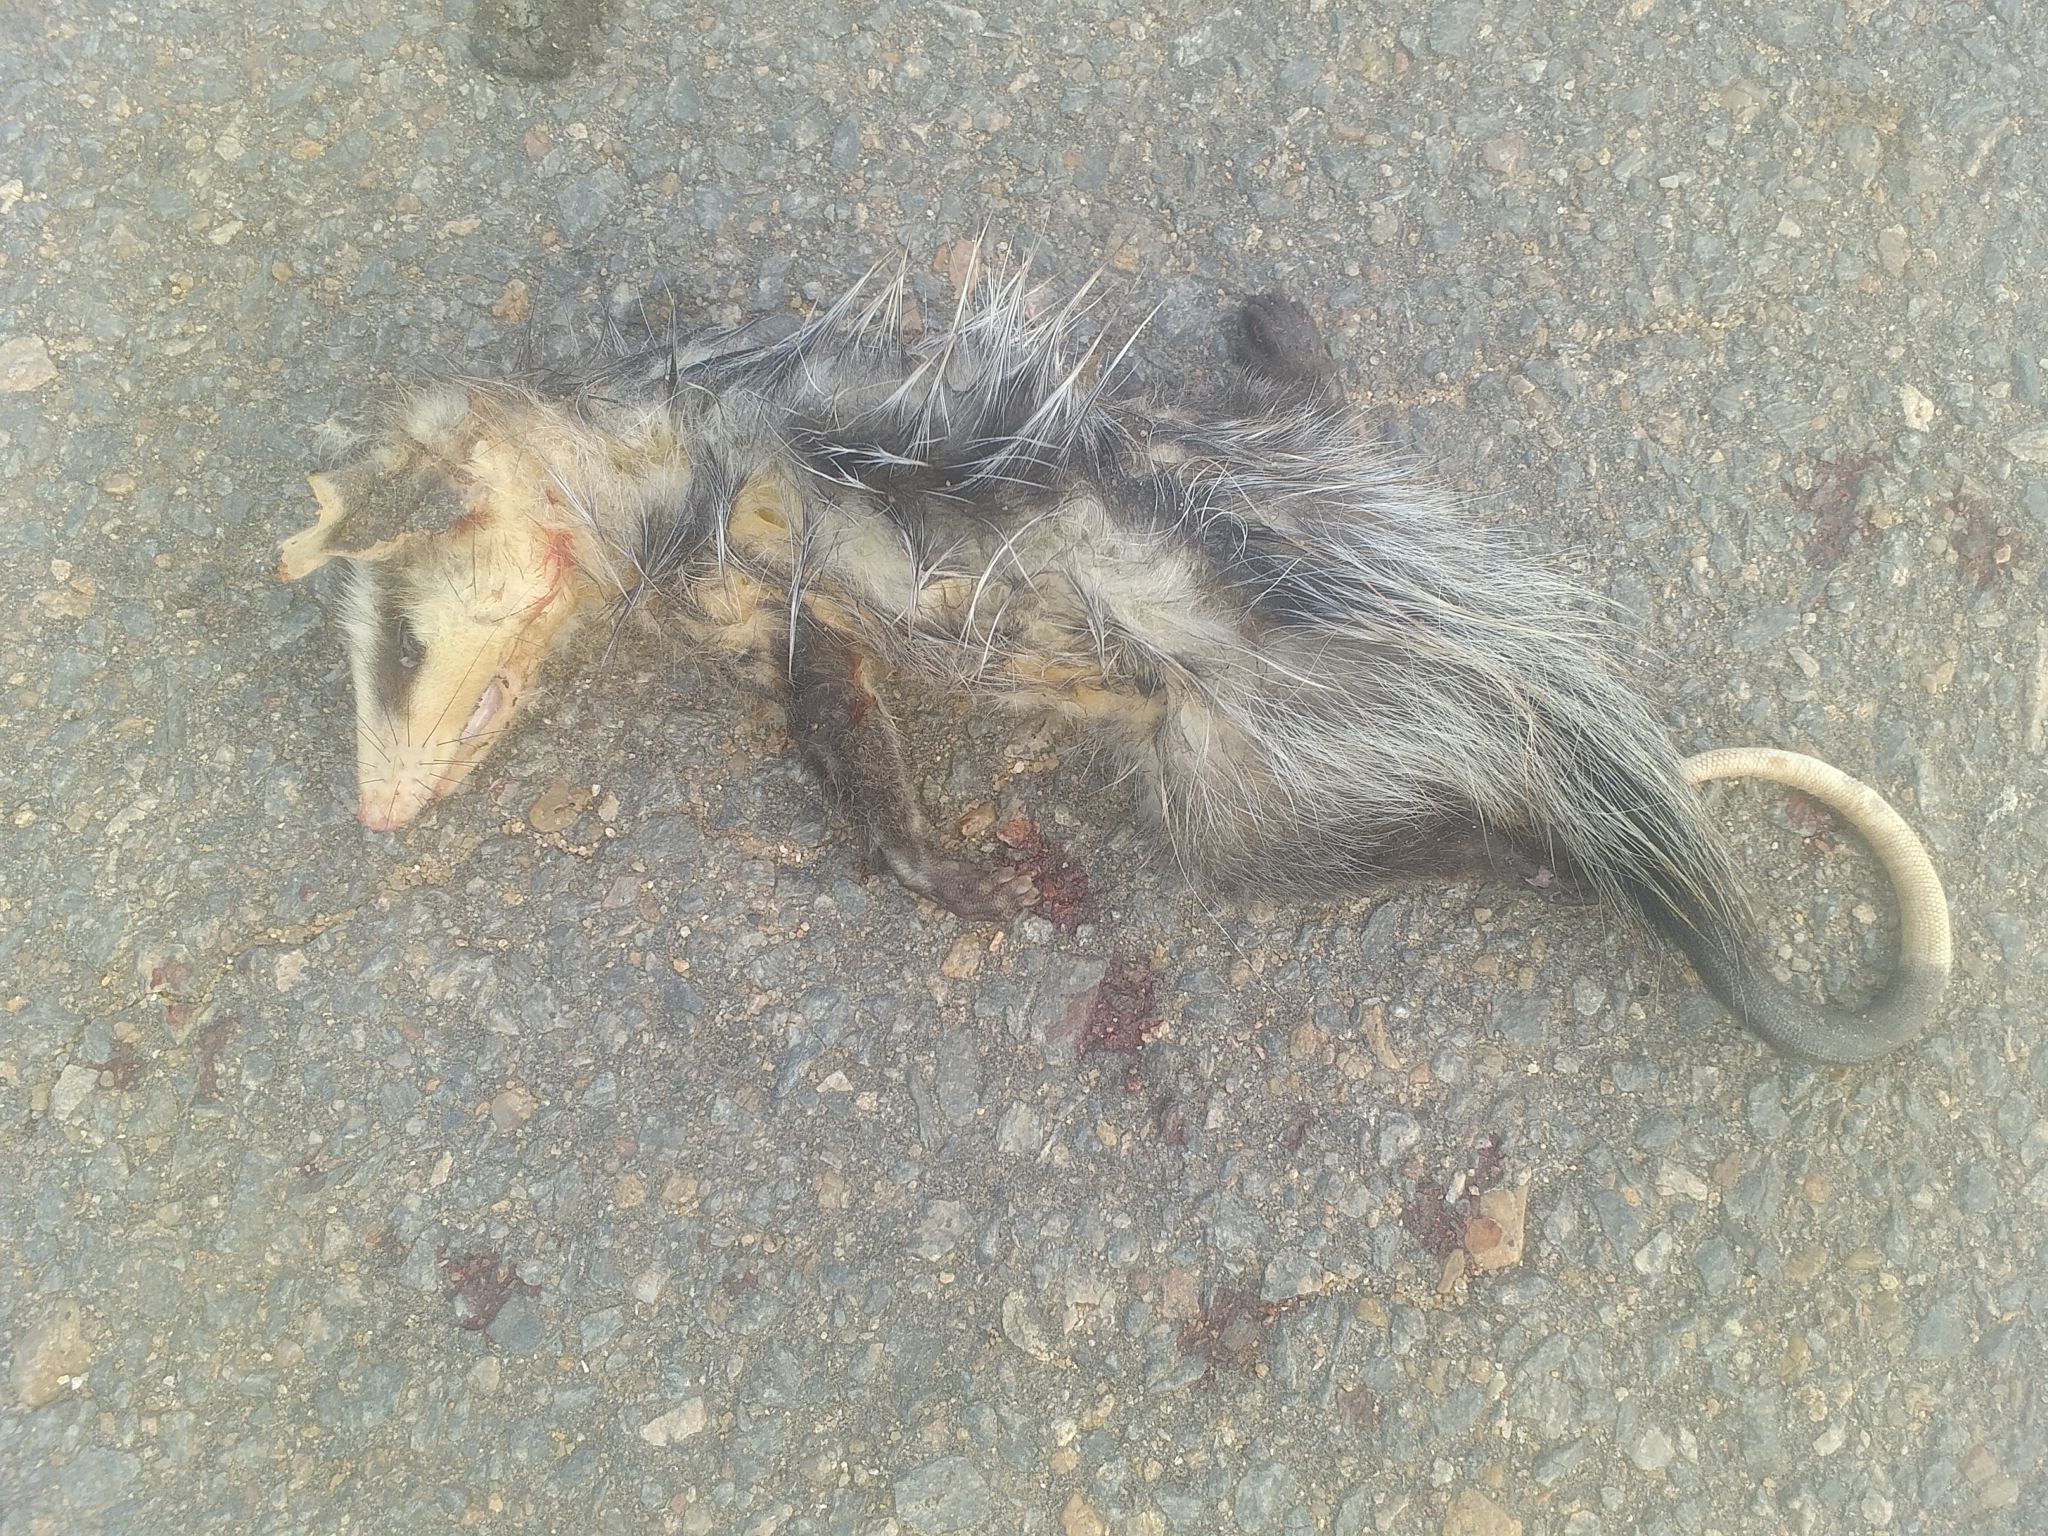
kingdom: Animalia
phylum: Chordata
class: Mammalia
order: Didelphimorphia
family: Didelphidae
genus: Didelphis
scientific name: Didelphis albiventris
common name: White-eared opossum
